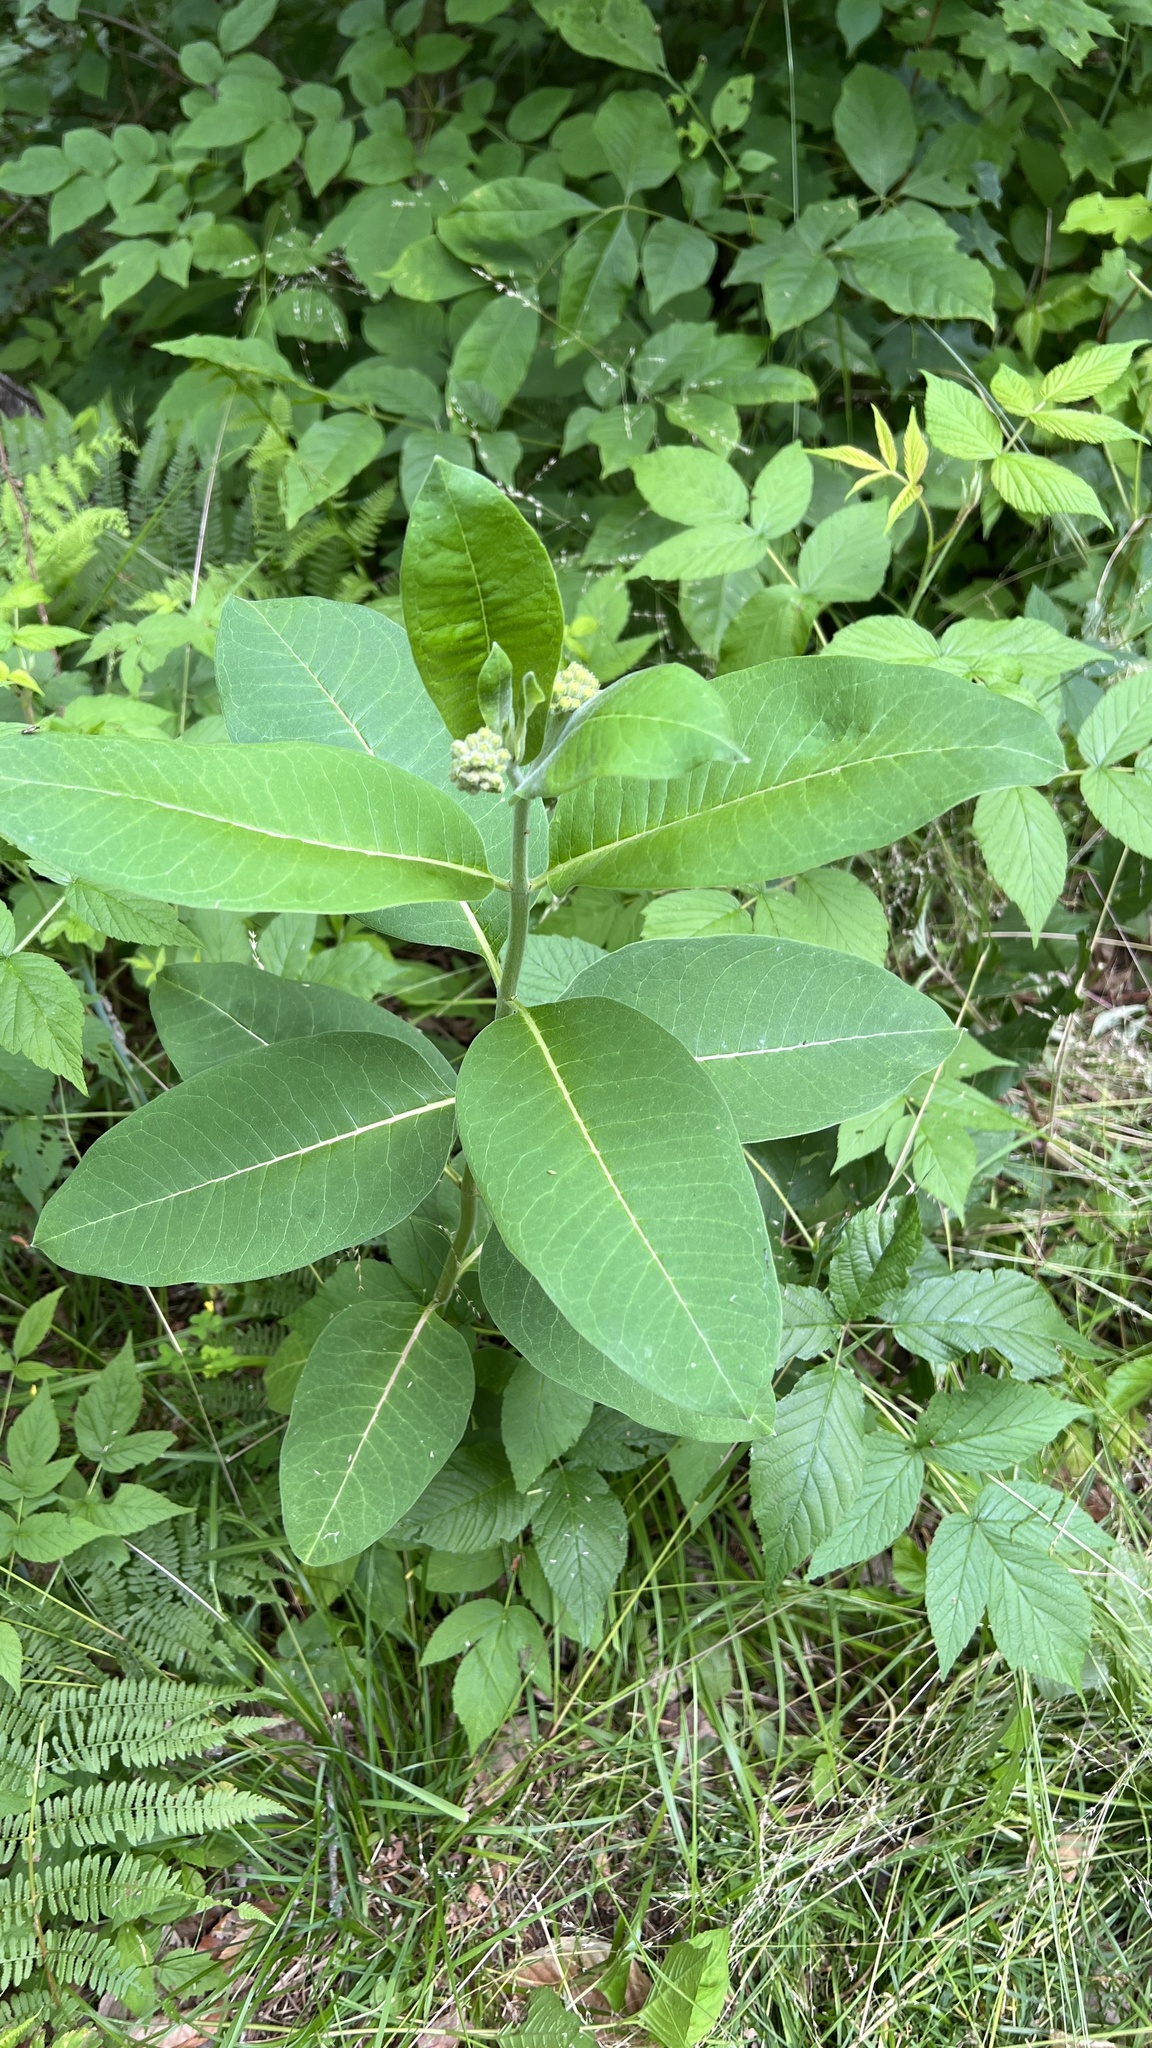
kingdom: Plantae
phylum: Tracheophyta
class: Magnoliopsida
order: Gentianales
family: Apocynaceae
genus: Asclepias
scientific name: Asclepias syriaca
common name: Common milkweed
